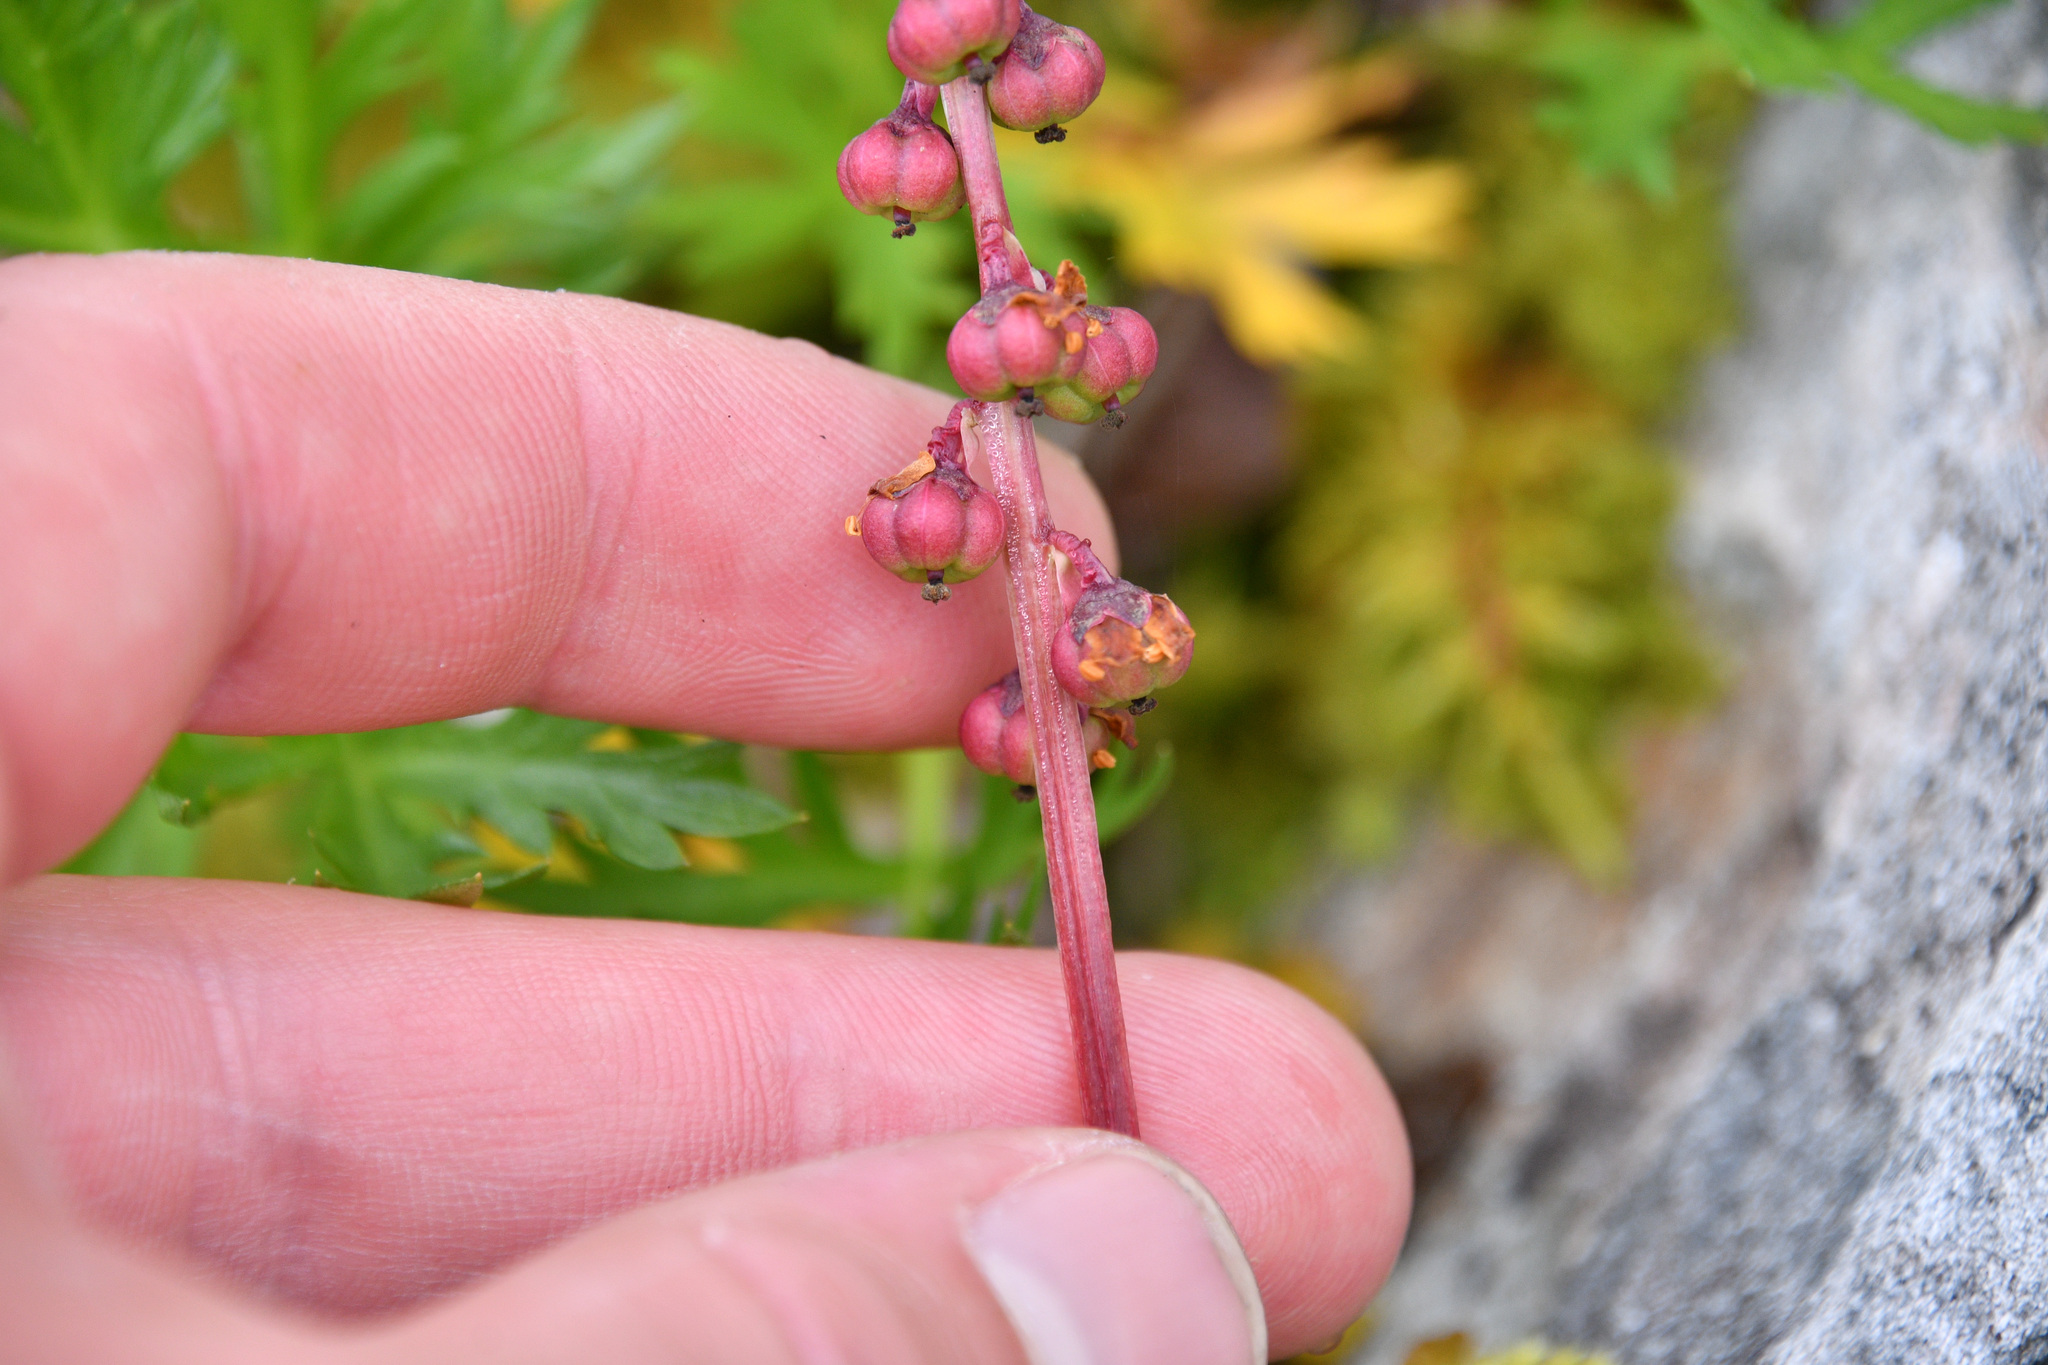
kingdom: Plantae
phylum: Tracheophyta
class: Magnoliopsida
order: Ericales
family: Ericaceae
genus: Pyrola
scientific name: Pyrola minor
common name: Common wintergreen
